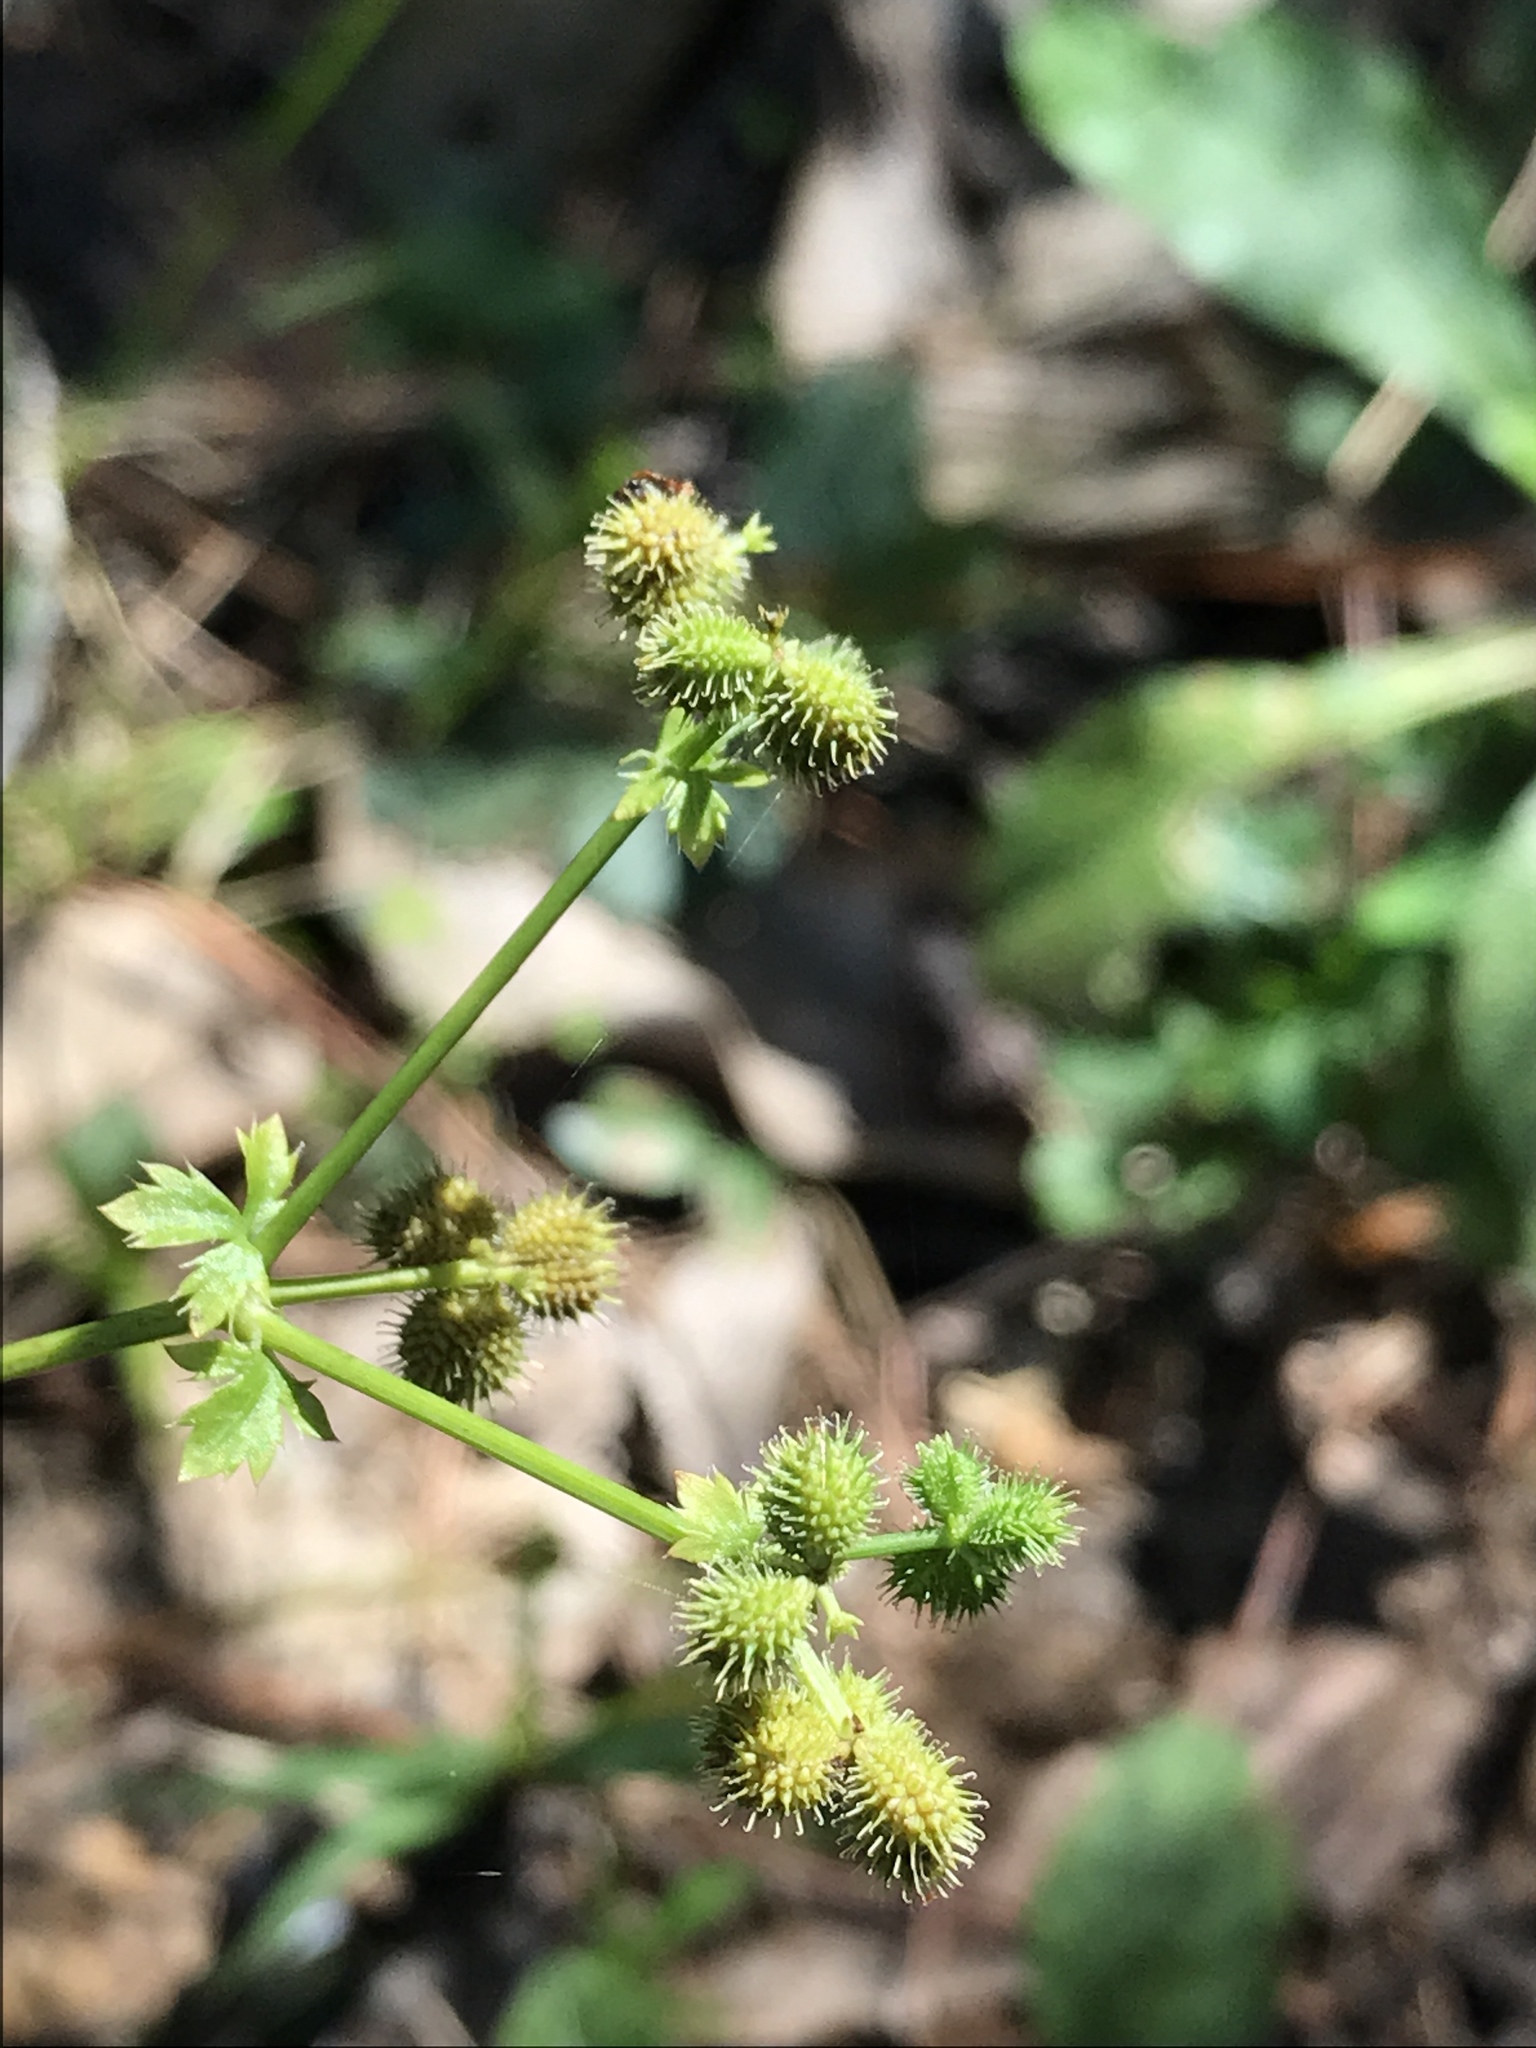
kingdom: Plantae
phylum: Tracheophyta
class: Magnoliopsida
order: Apiales
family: Apiaceae
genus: Sanicula
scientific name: Sanicula canadensis
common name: Canada sanicle
